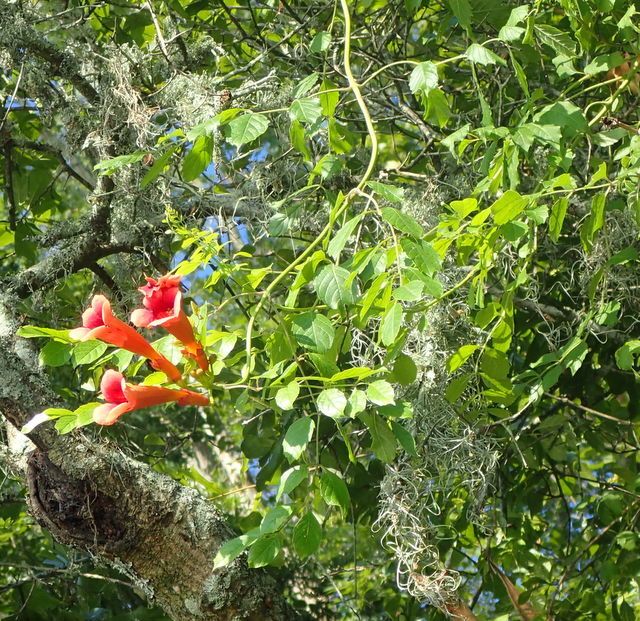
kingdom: Plantae
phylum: Tracheophyta
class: Magnoliopsida
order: Lamiales
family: Bignoniaceae
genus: Campsis
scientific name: Campsis radicans
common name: Trumpet-creeper
